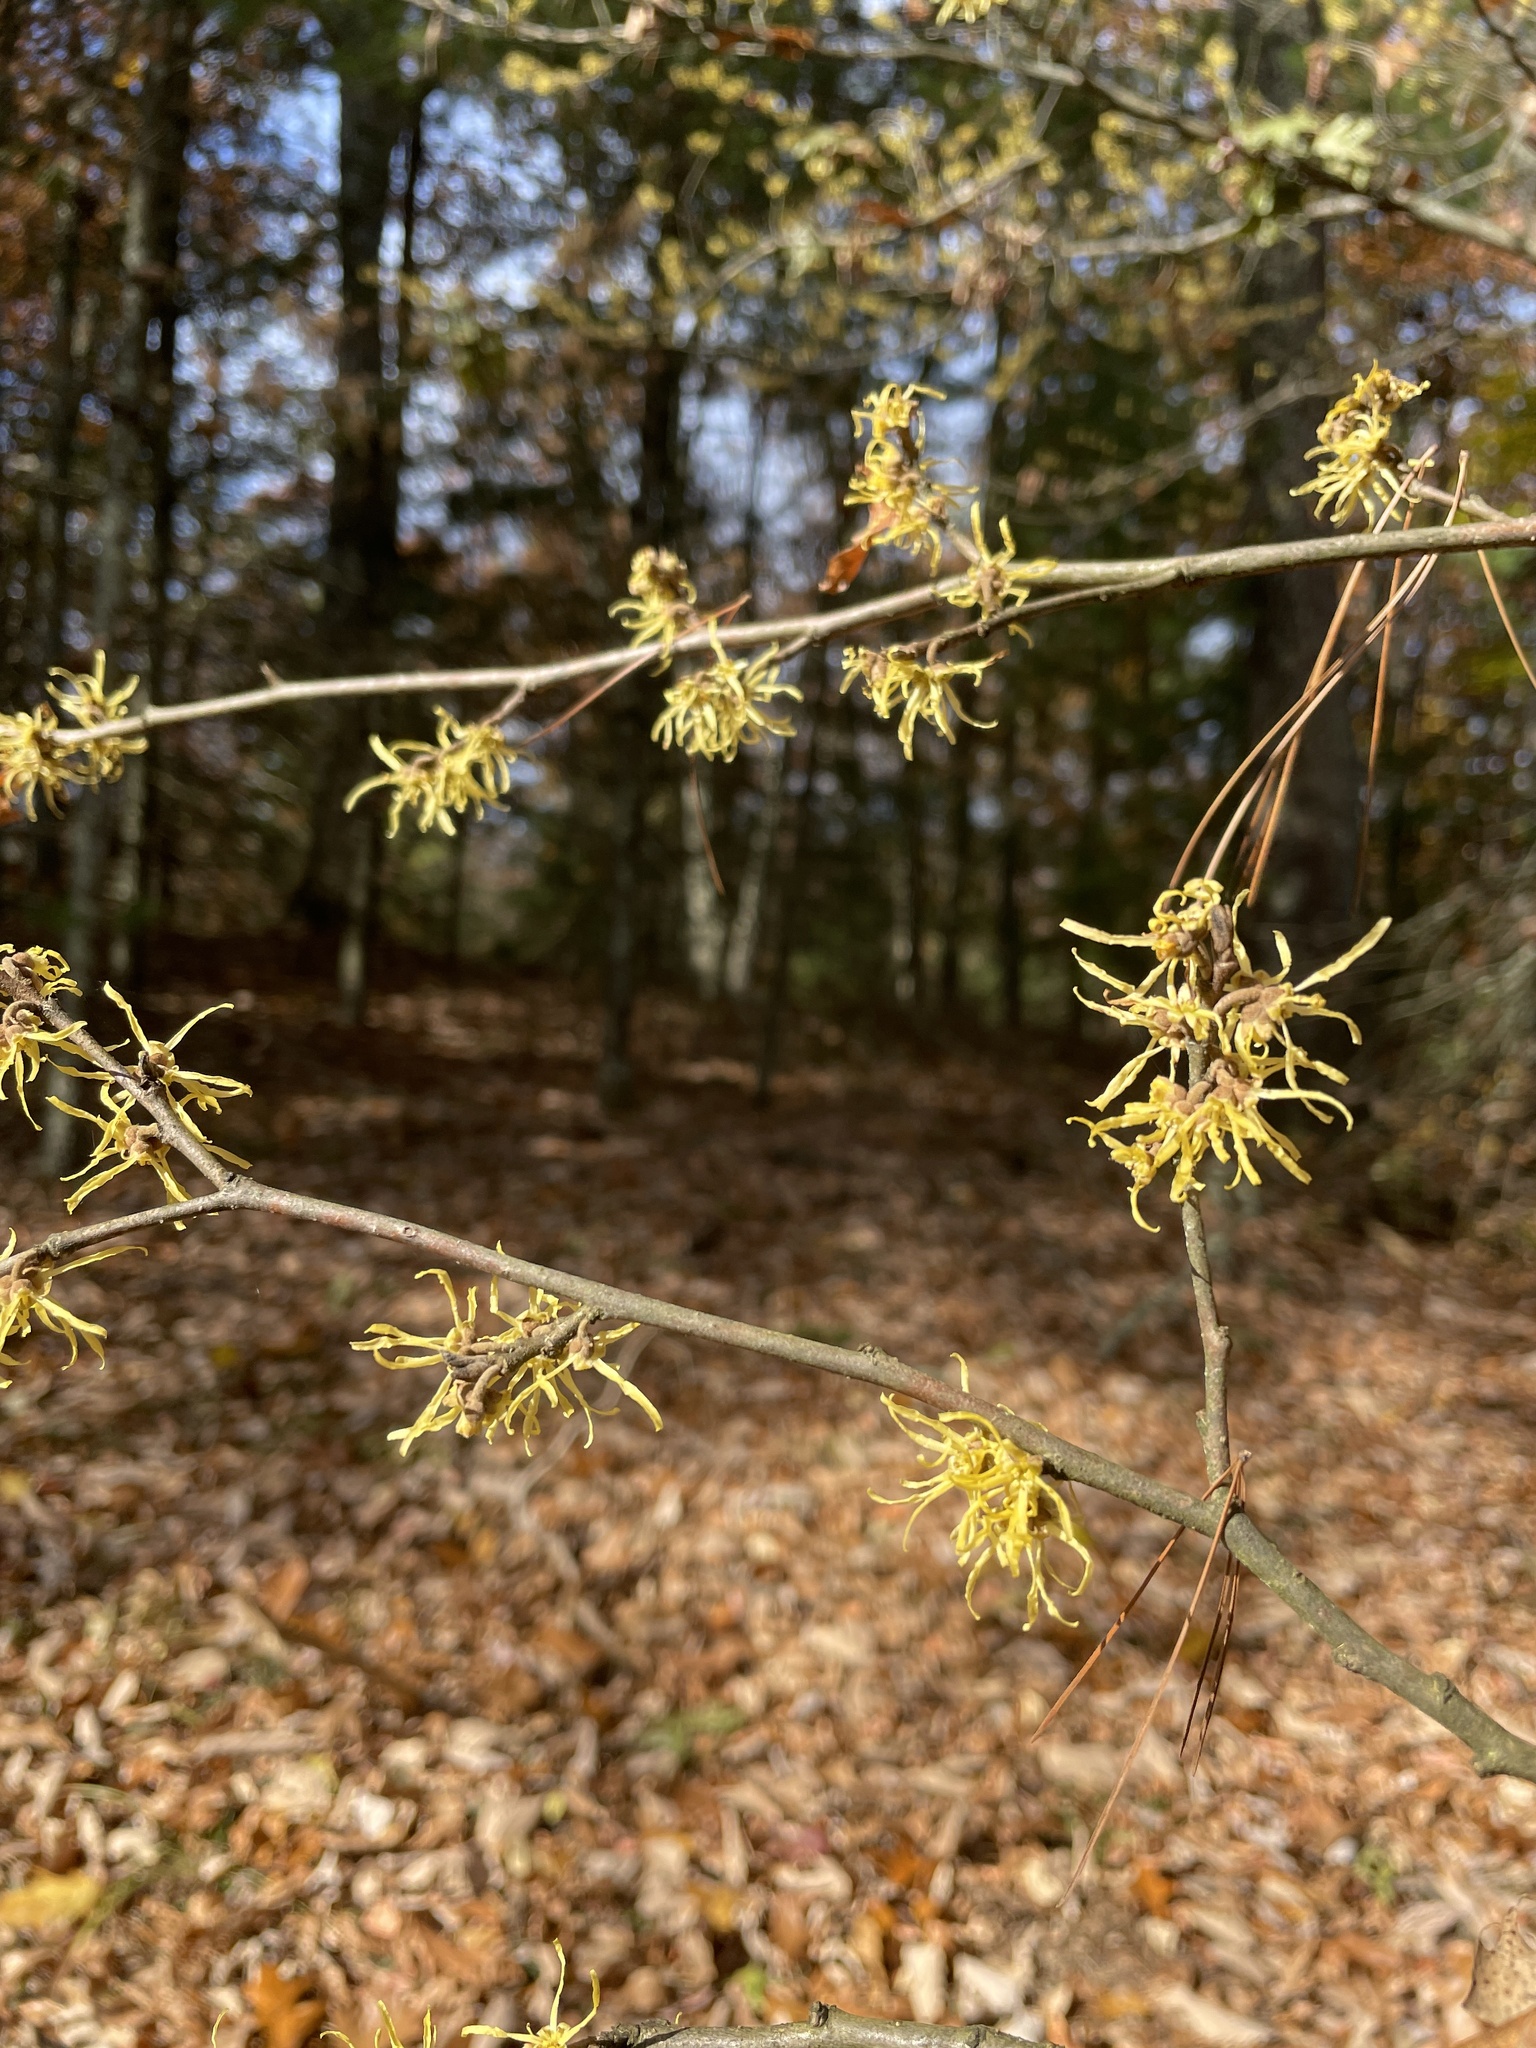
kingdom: Plantae
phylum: Tracheophyta
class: Magnoliopsida
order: Saxifragales
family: Hamamelidaceae
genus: Hamamelis
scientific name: Hamamelis virginiana
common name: Witch-hazel
